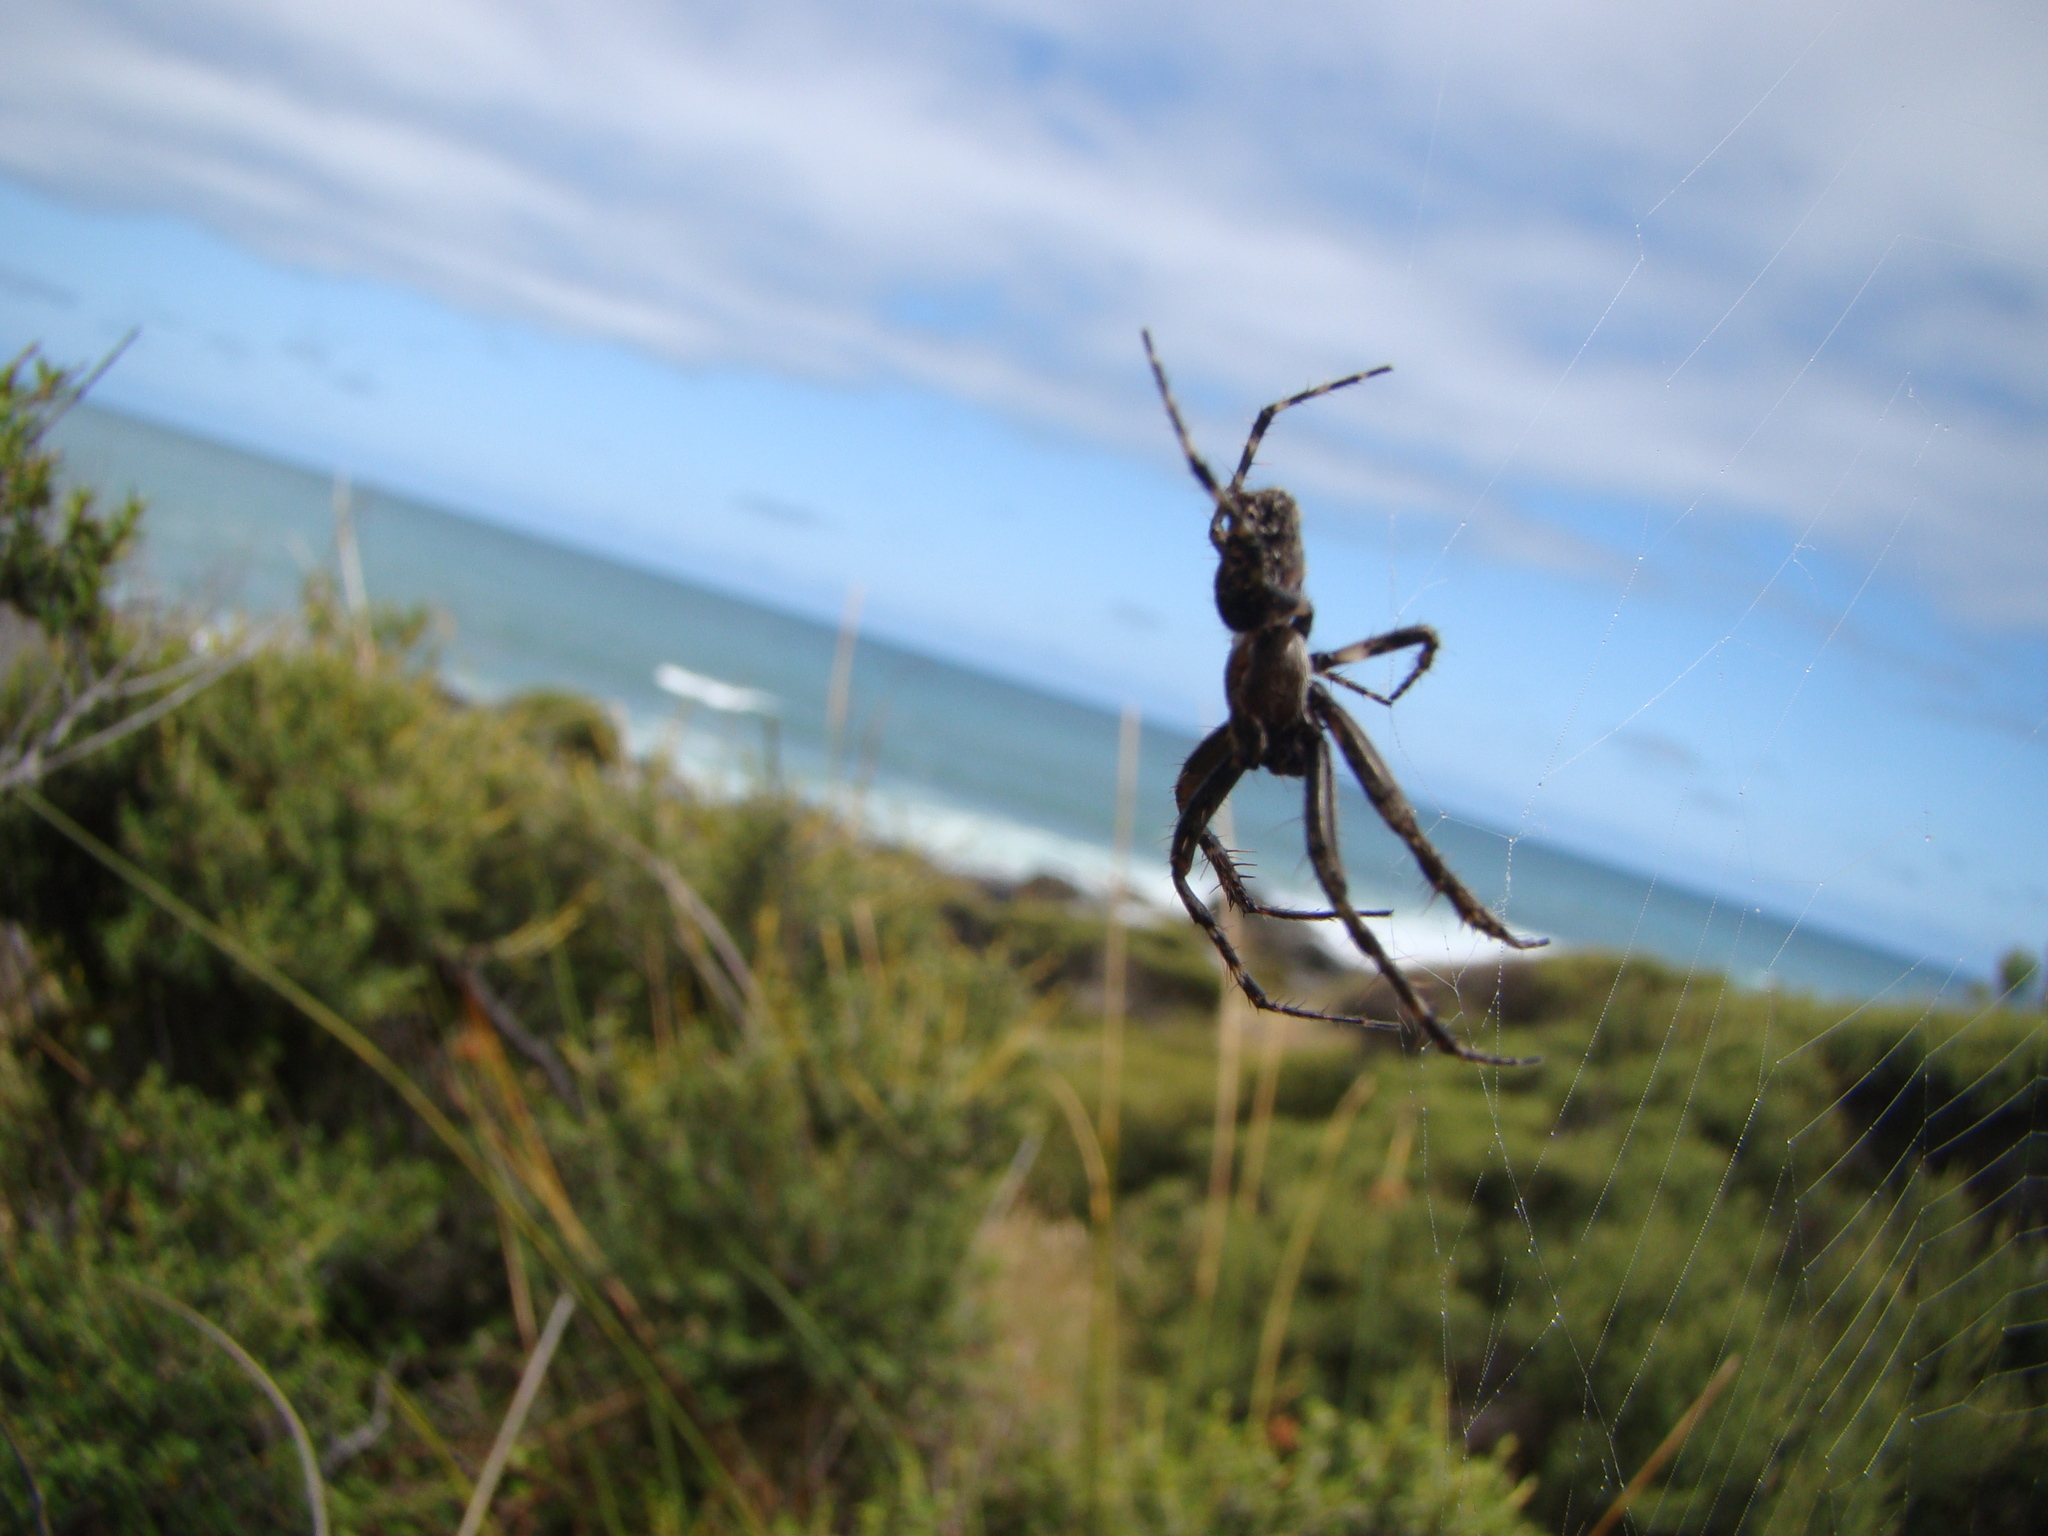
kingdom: Animalia
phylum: Arthropoda
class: Arachnida
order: Araneae
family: Araneidae
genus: Eriophora
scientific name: Eriophora pustulosa
